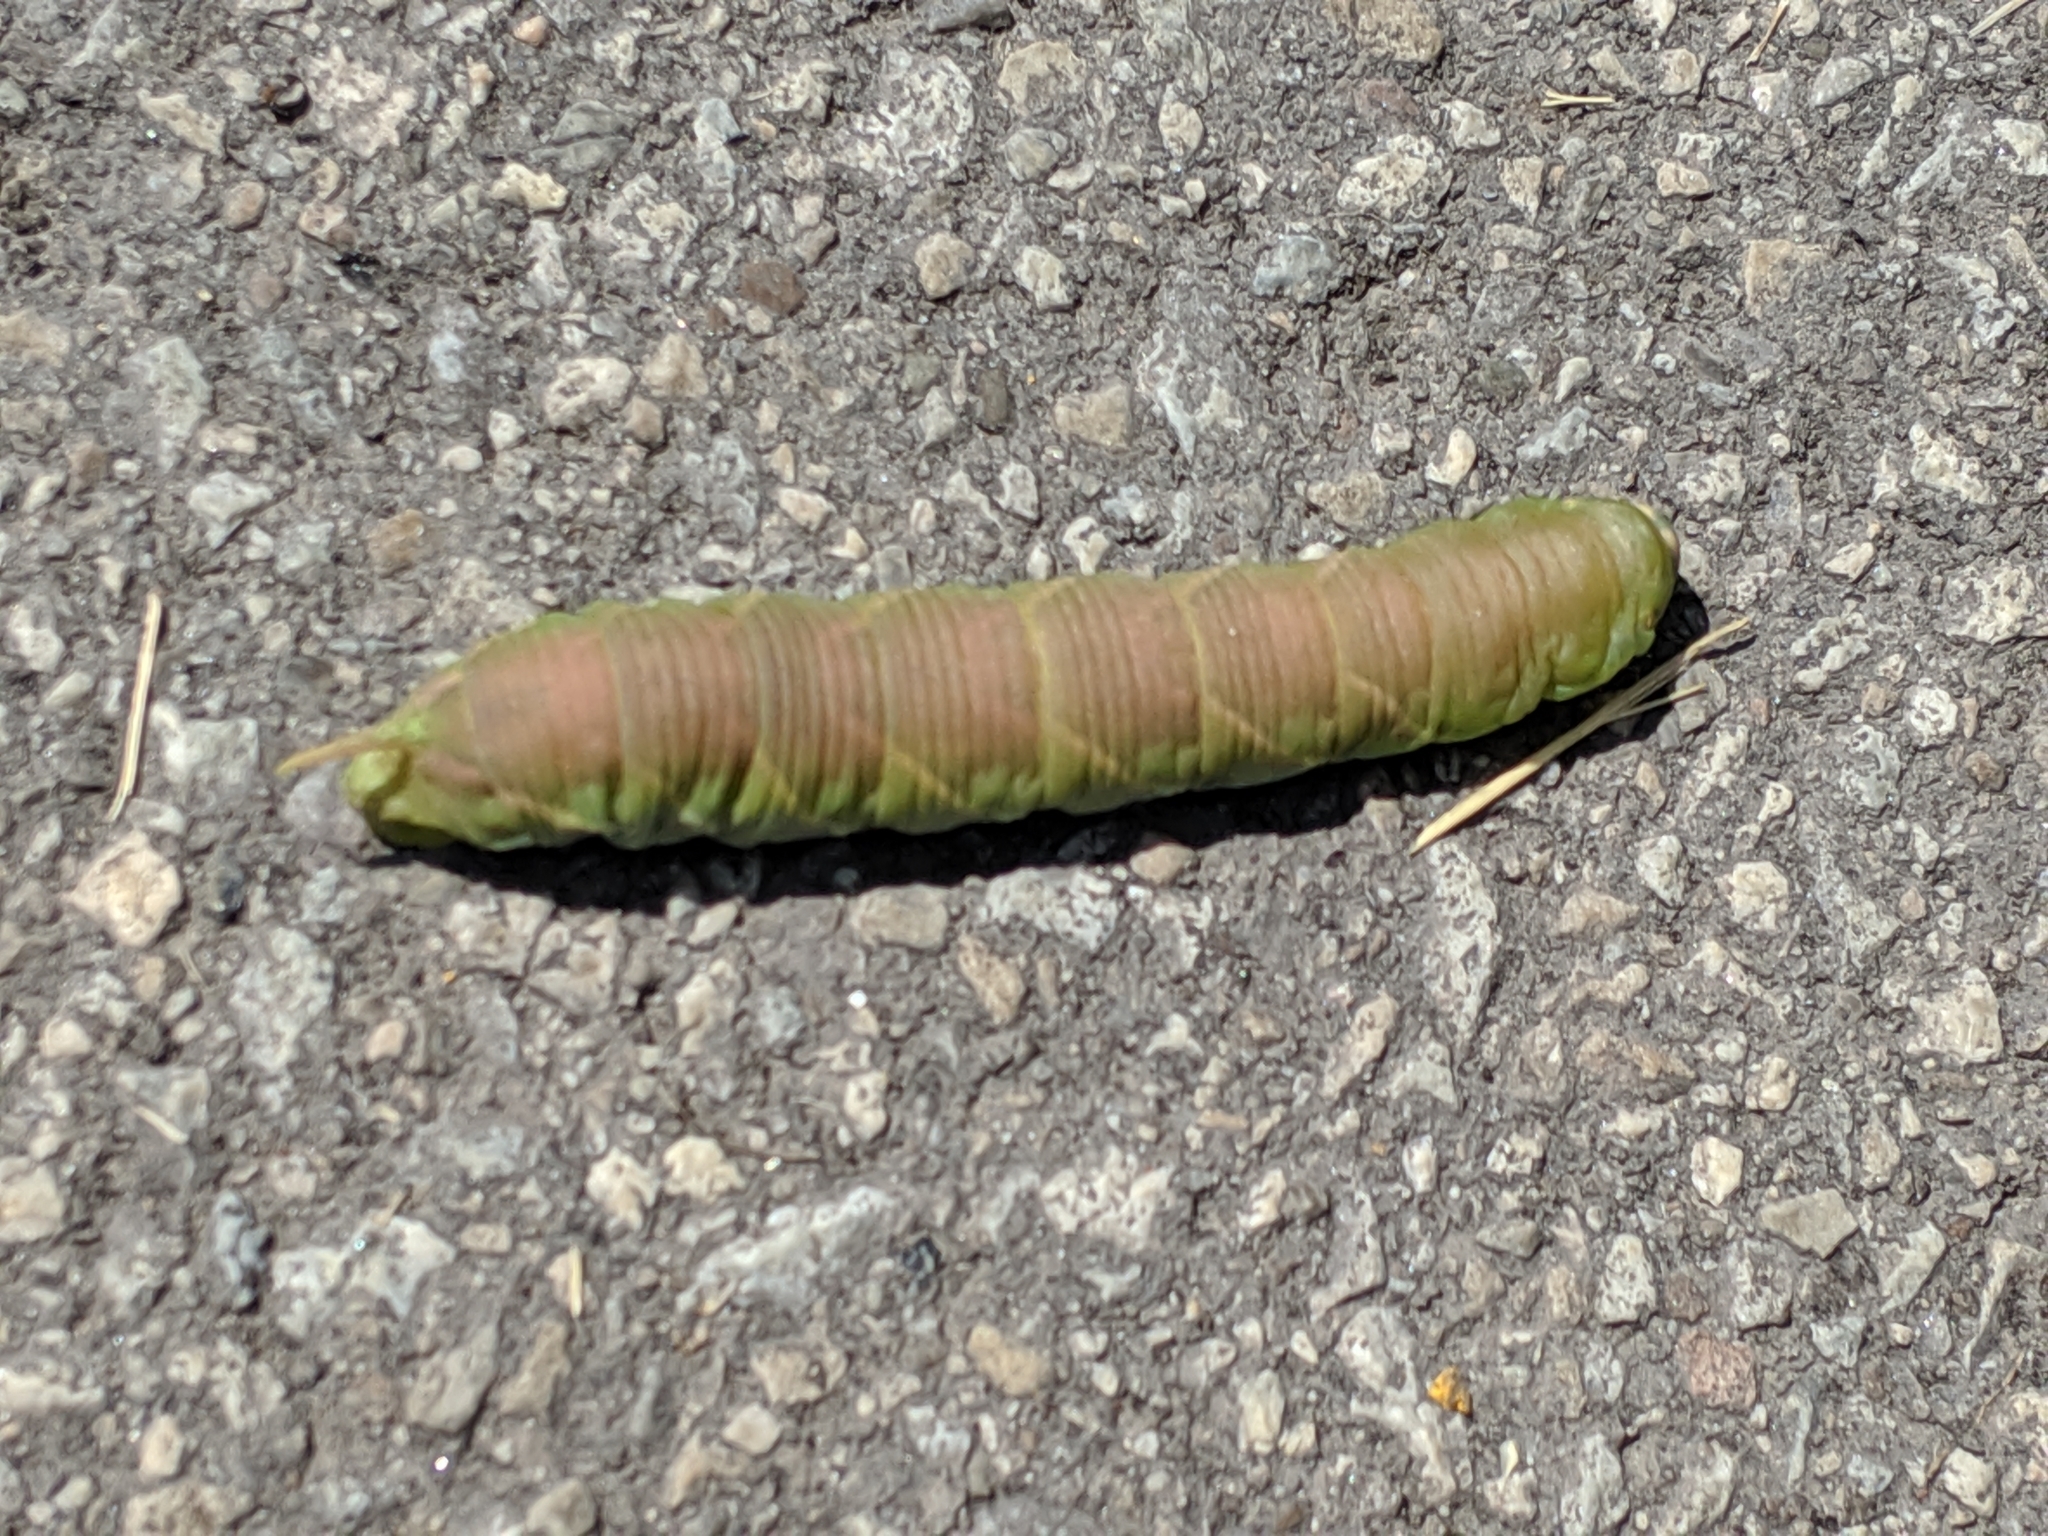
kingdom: Animalia
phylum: Arthropoda
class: Insecta
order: Lepidoptera
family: Sphingidae
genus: Ceratomia
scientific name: Ceratomia undulosa
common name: Waved sphinx
